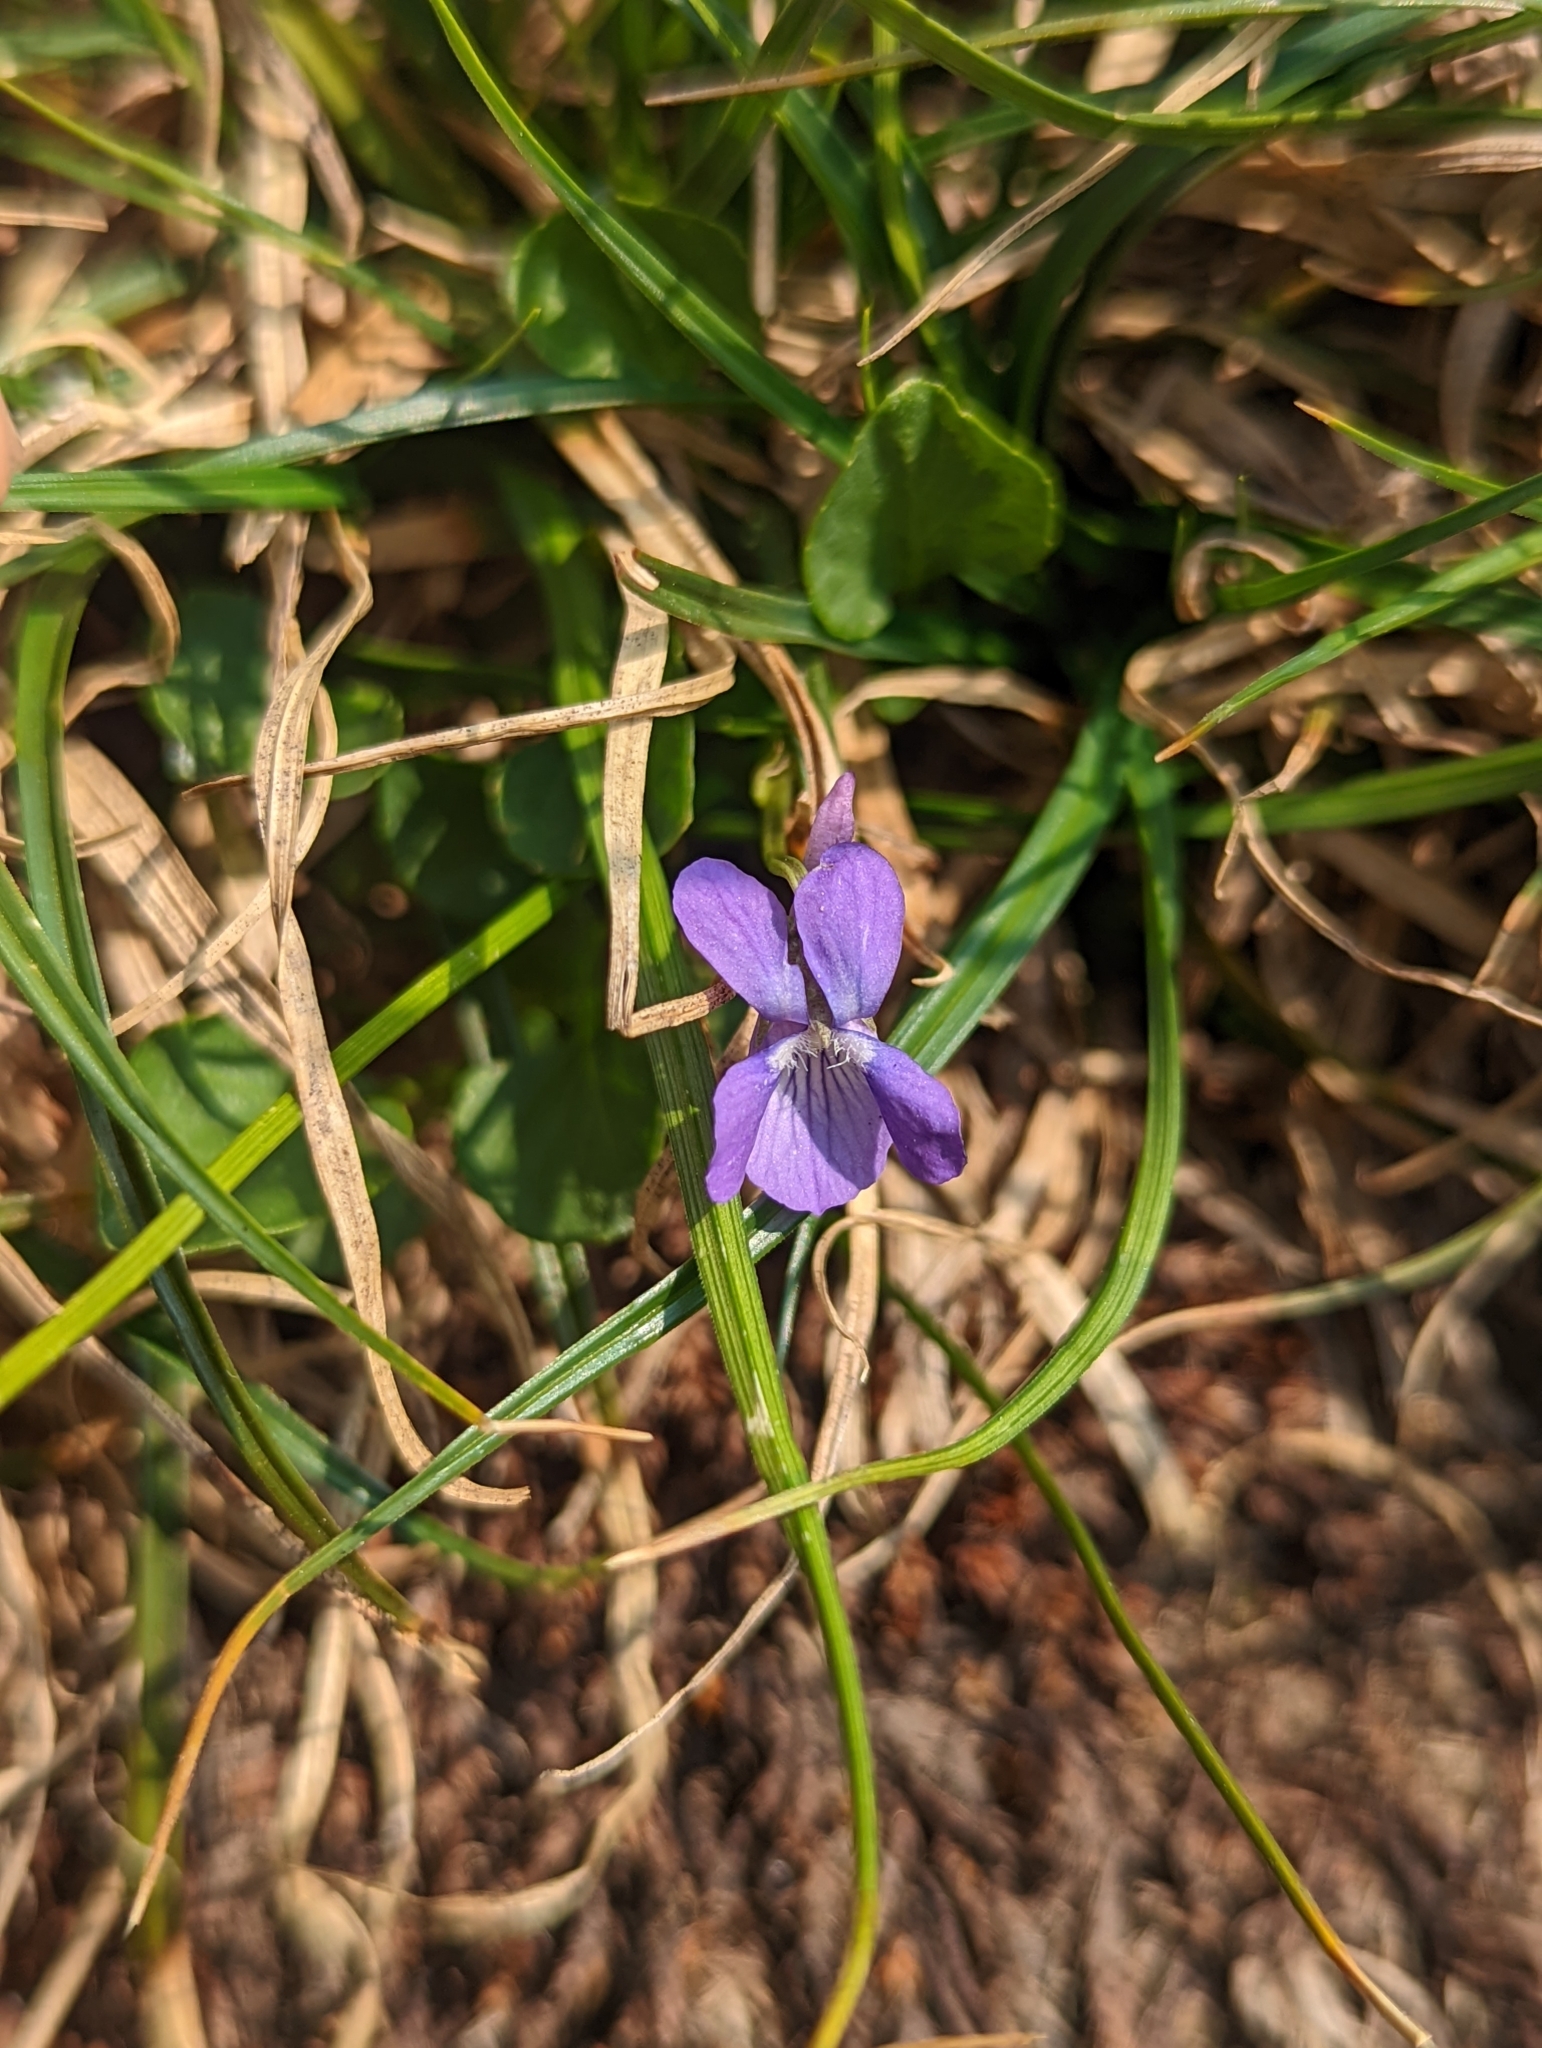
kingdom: Plantae
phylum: Tracheophyta
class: Magnoliopsida
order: Malpighiales
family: Violaceae
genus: Viola
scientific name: Viola adunca
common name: Sand violet
